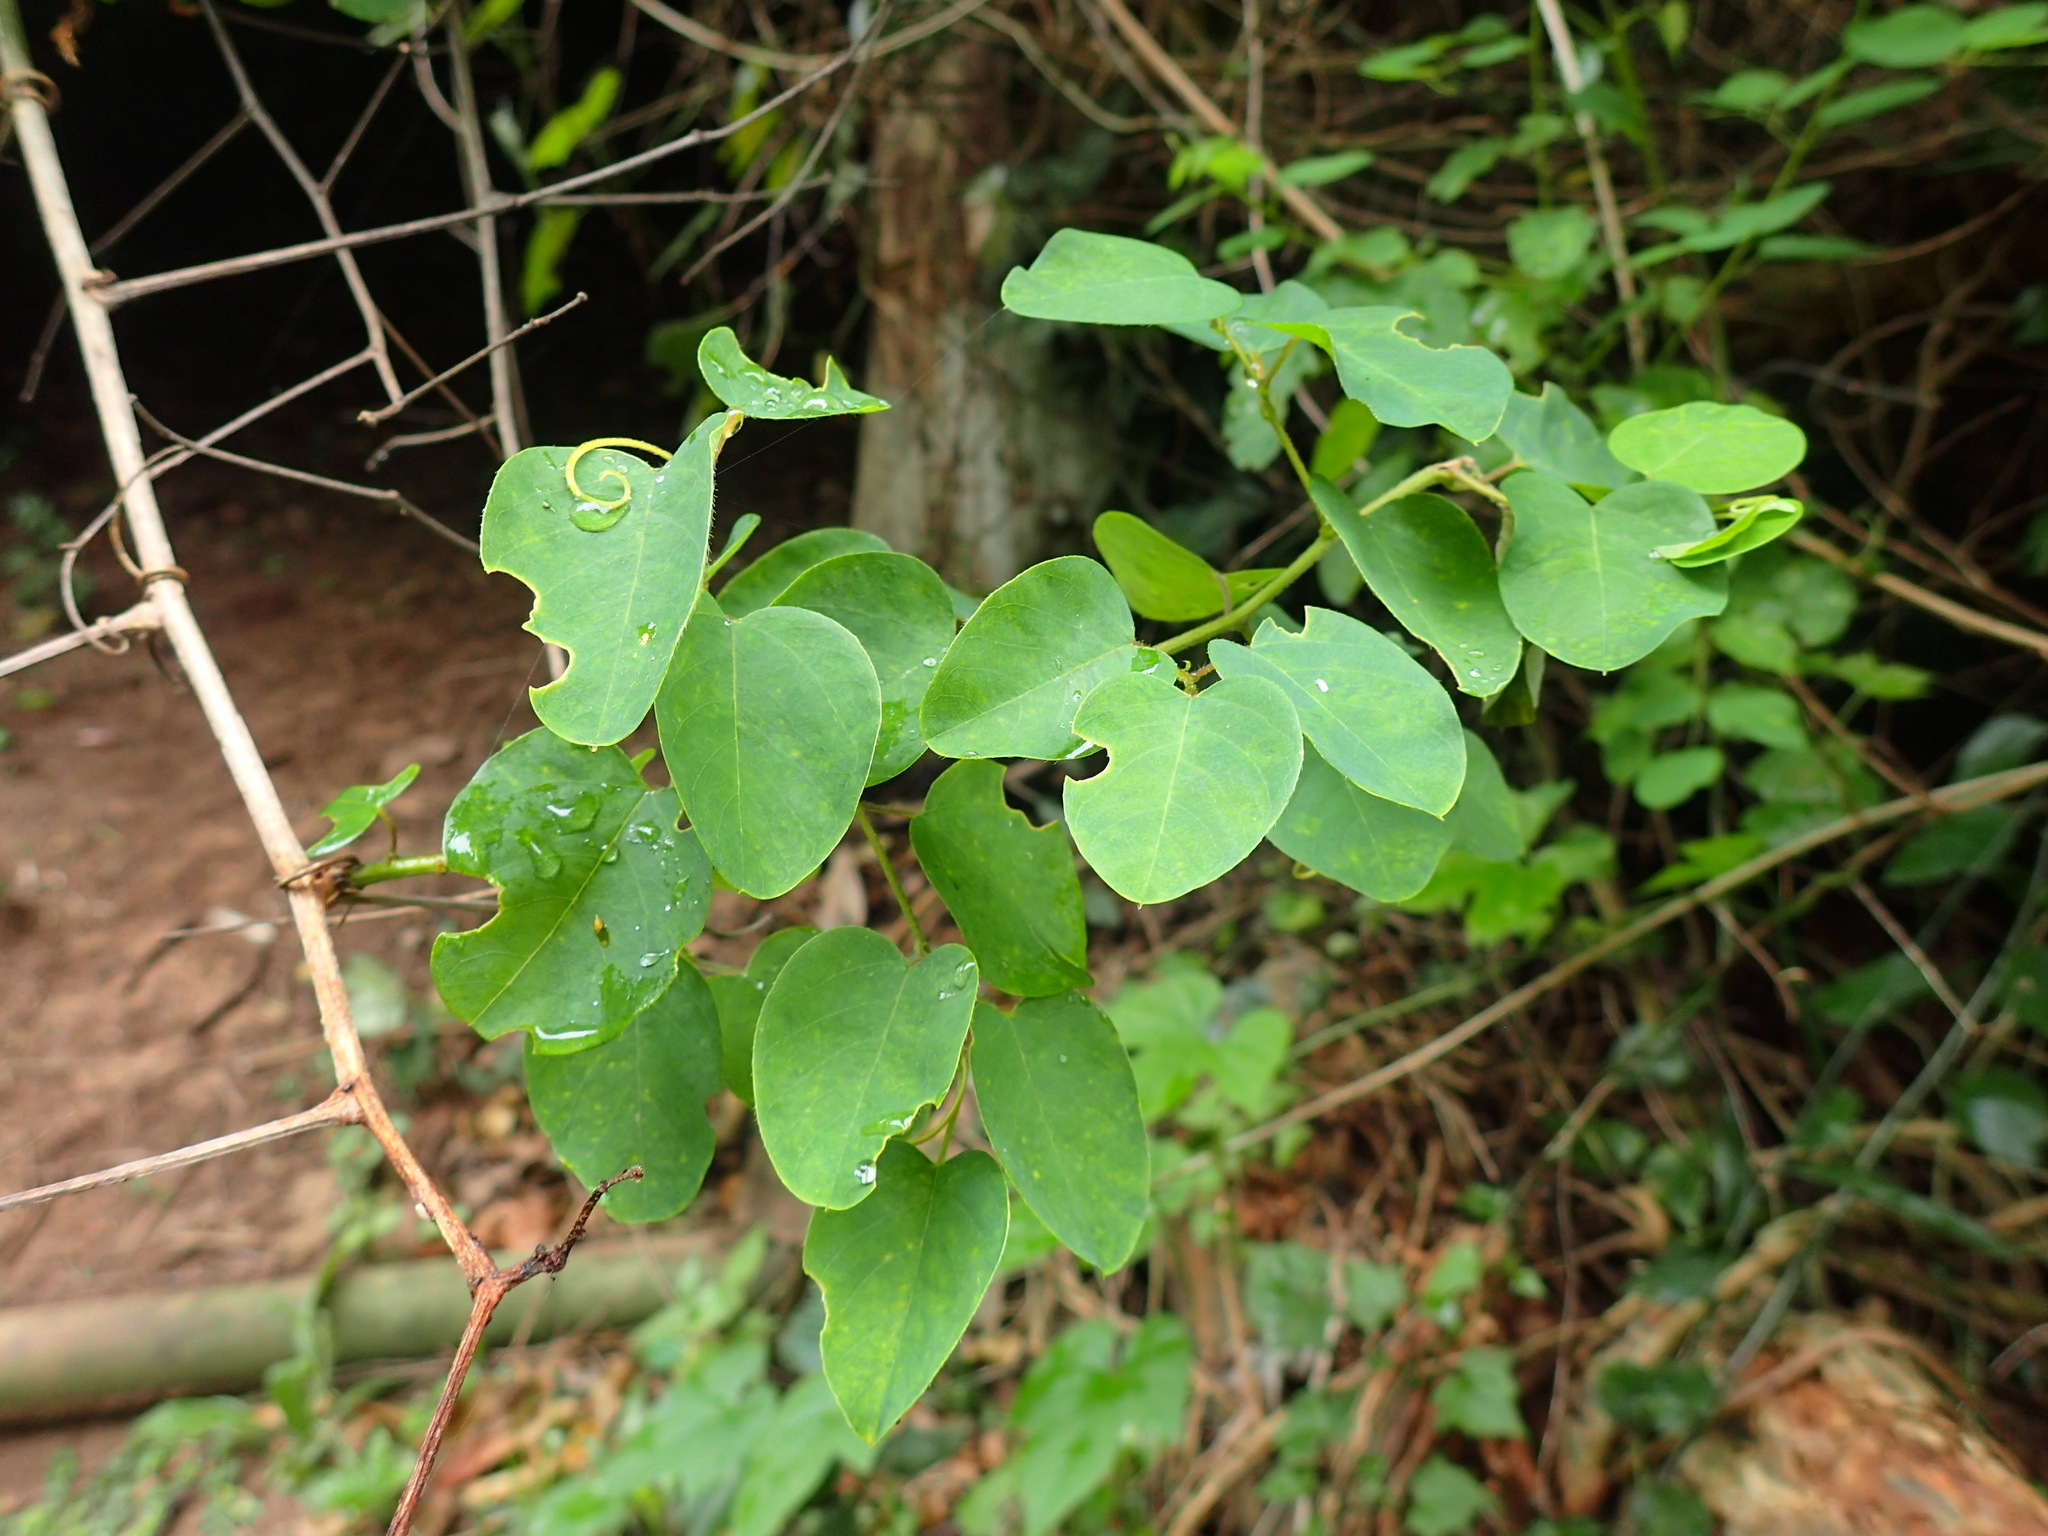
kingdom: Plantae
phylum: Tracheophyta
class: Magnoliopsida
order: Rosales
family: Rhamnaceae
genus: Helinus
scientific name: Helinus integrifolius
